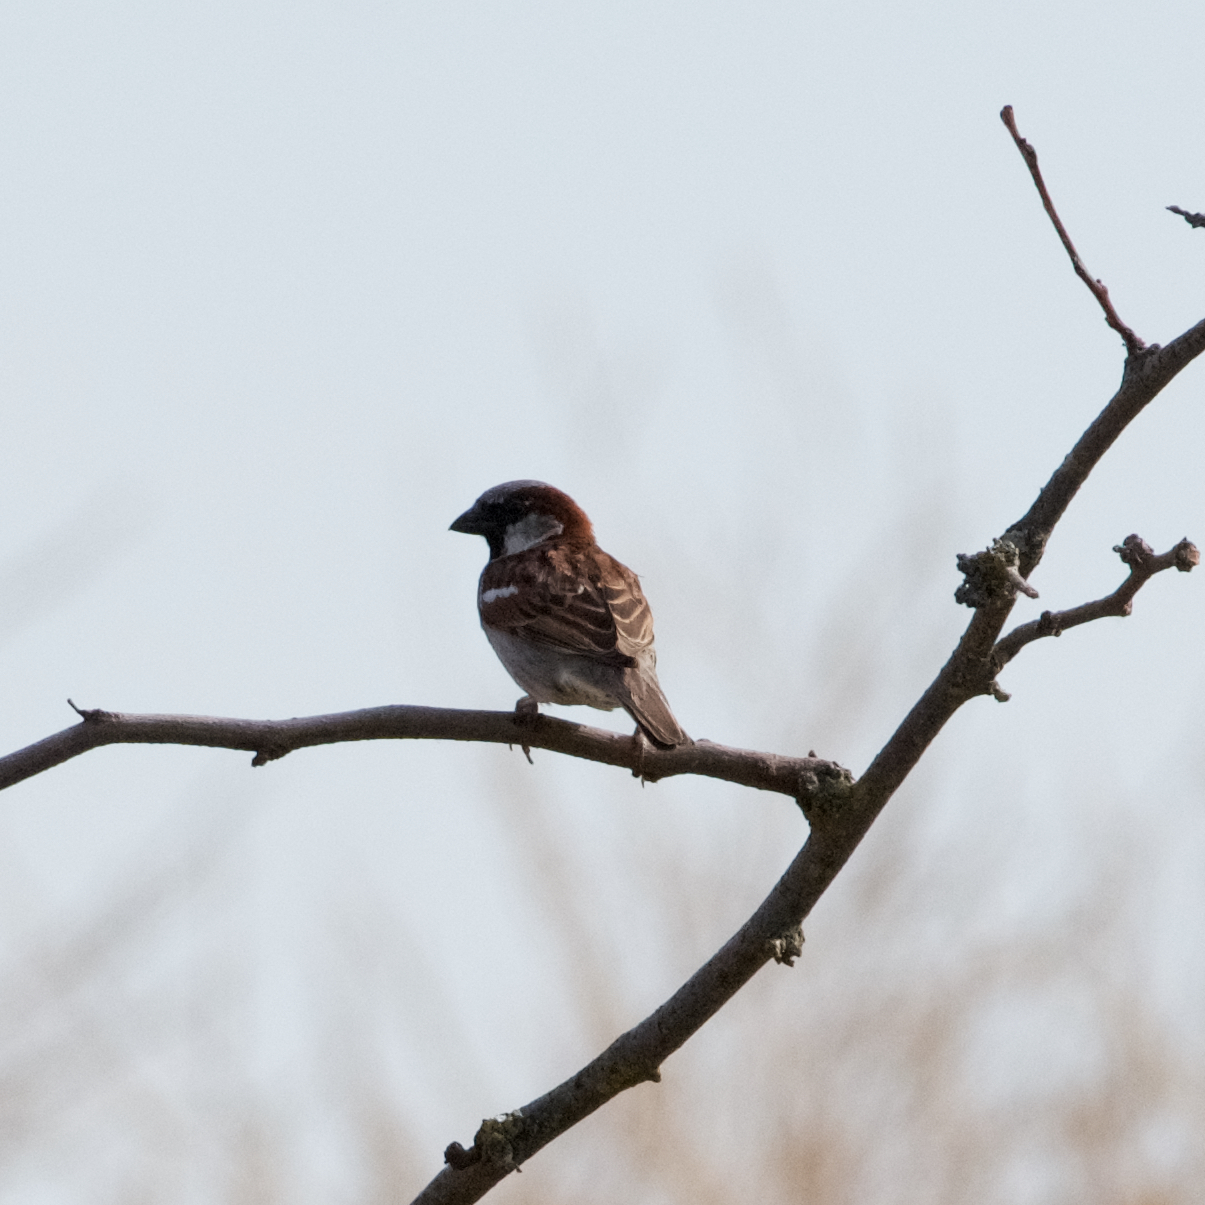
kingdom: Animalia
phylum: Chordata
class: Aves
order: Passeriformes
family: Passeridae
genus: Passer
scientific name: Passer domesticus
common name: House sparrow
